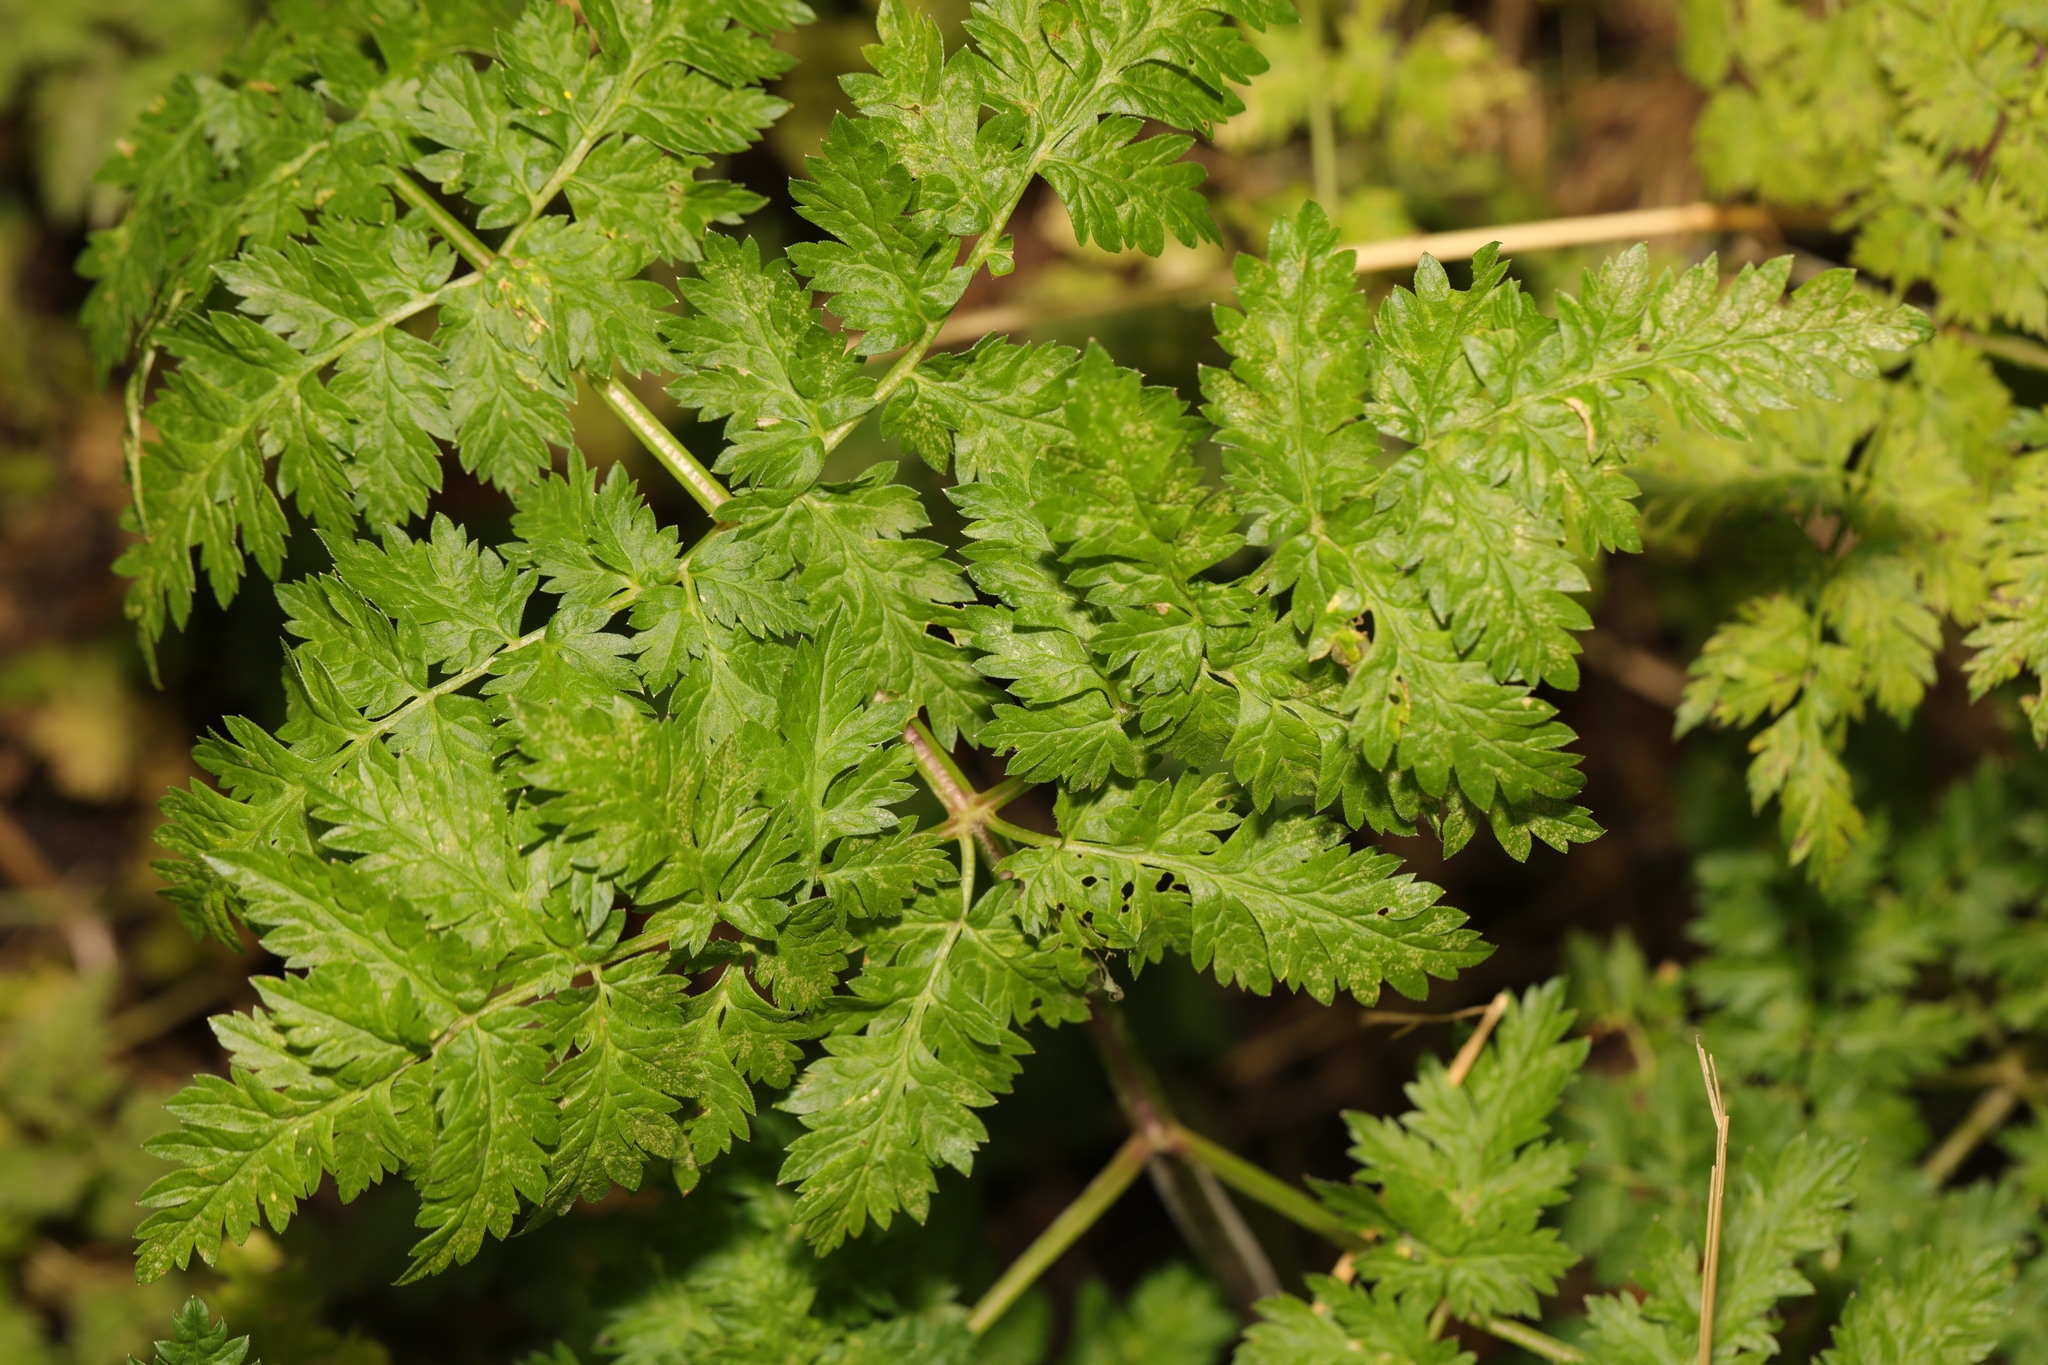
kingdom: Plantae
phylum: Tracheophyta
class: Magnoliopsida
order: Apiales
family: Apiaceae
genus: Anthriscus
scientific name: Anthriscus sylvestris
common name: Cow parsley
